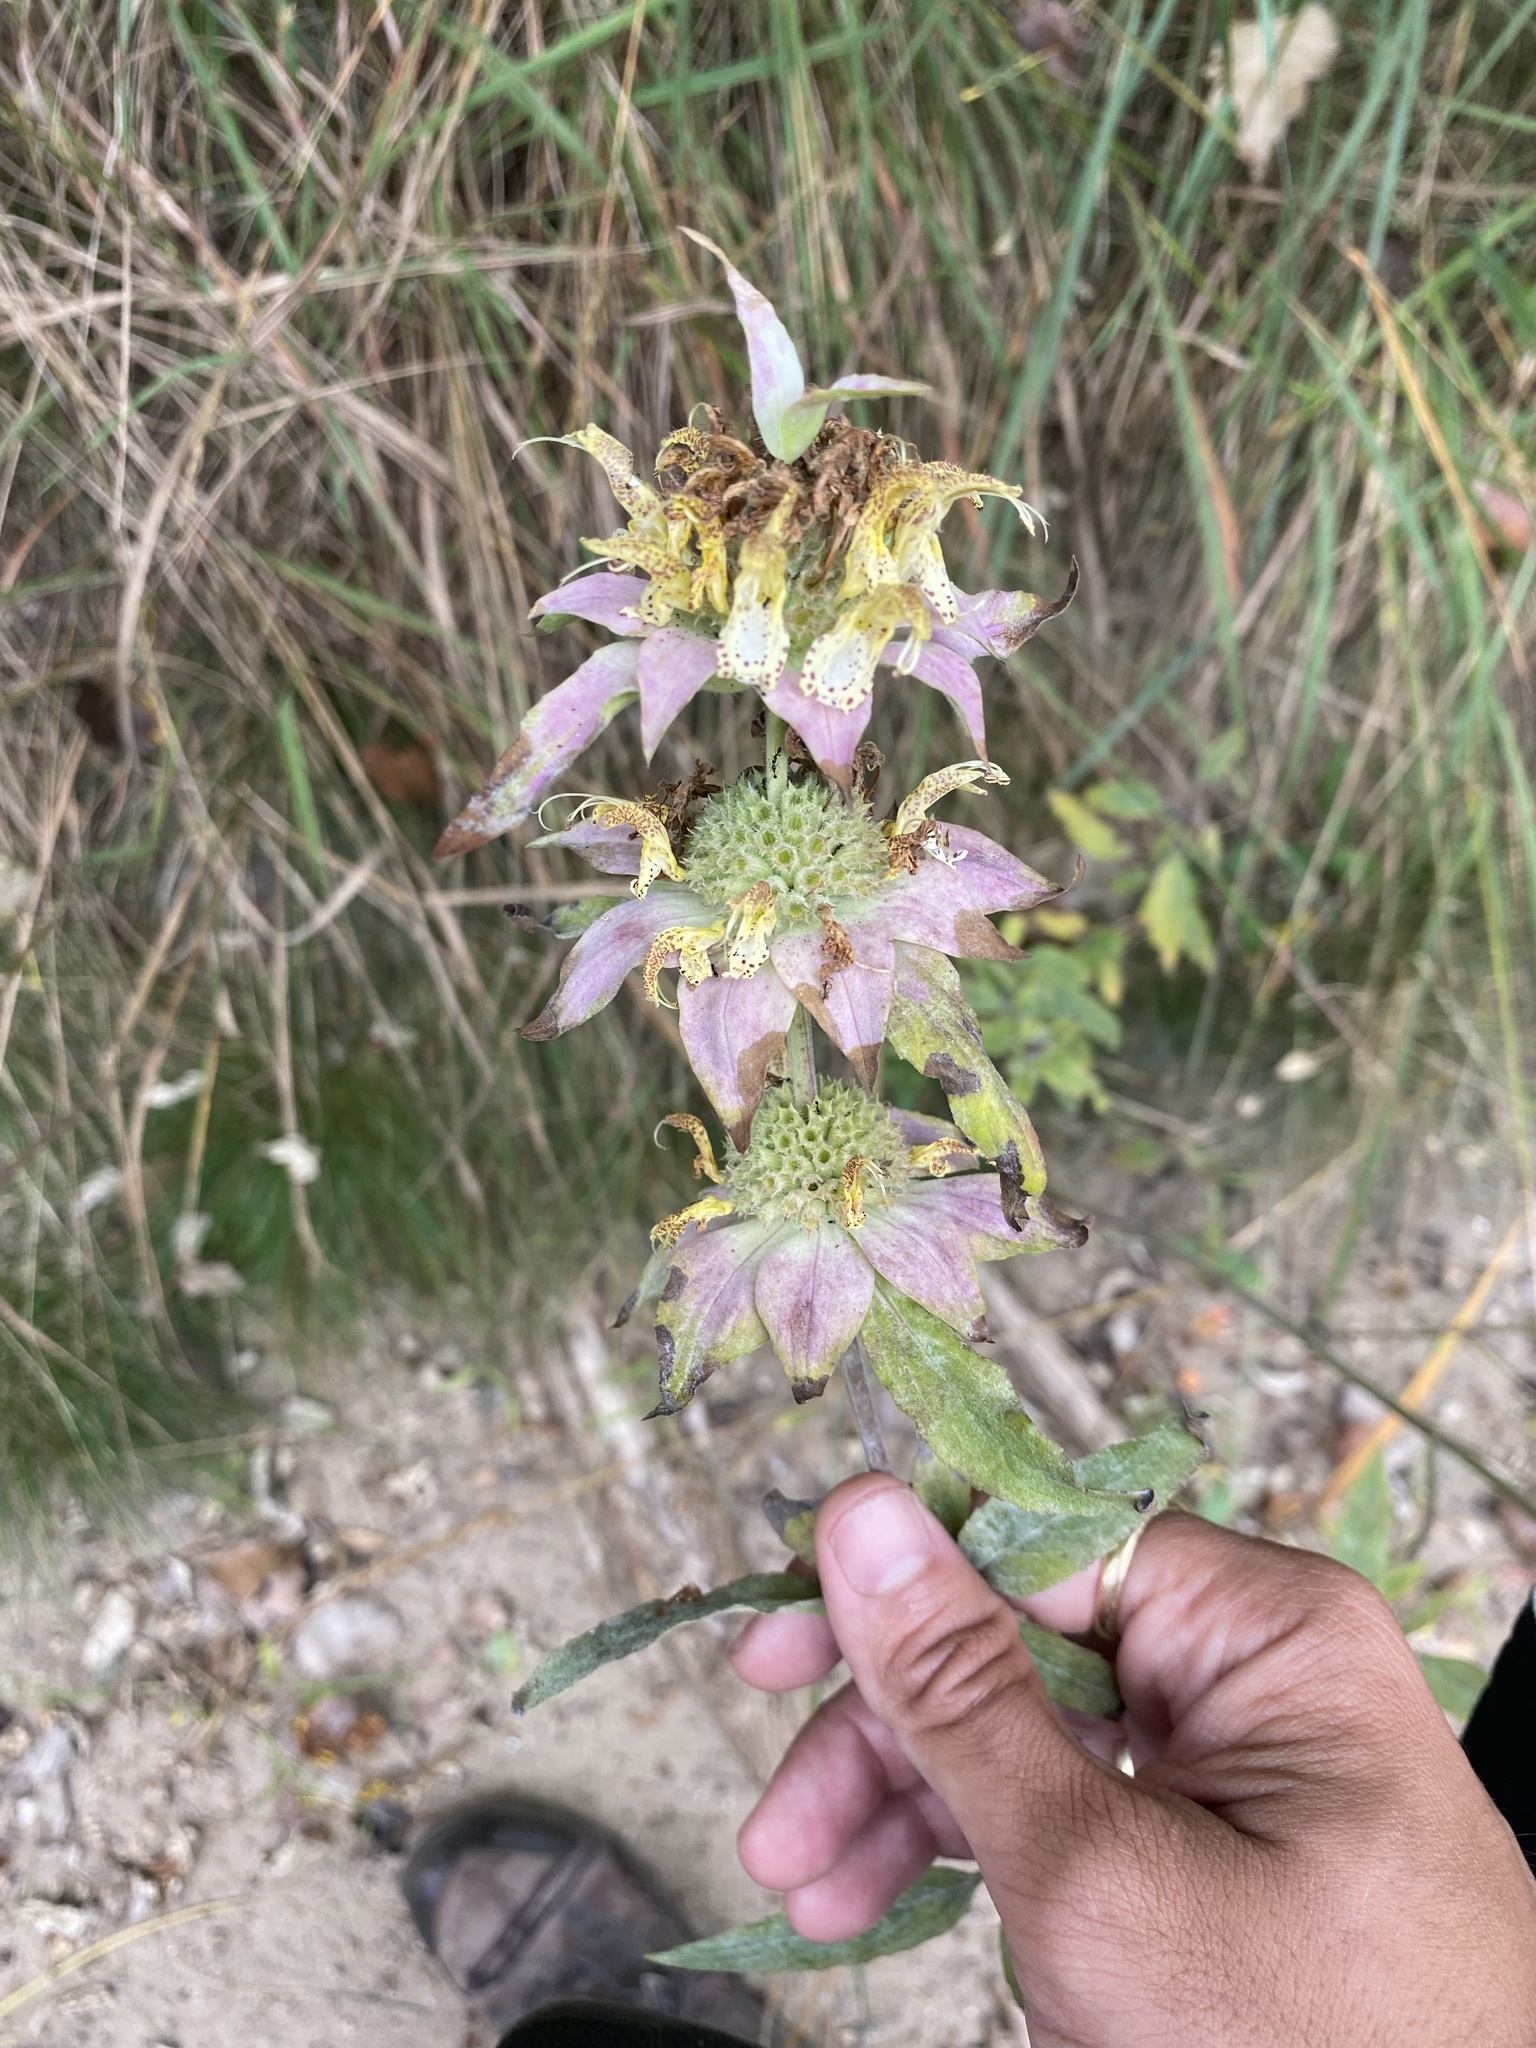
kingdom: Plantae
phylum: Tracheophyta
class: Magnoliopsida
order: Lamiales
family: Lamiaceae
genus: Monarda
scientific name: Monarda punctata
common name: Dotted monarda
